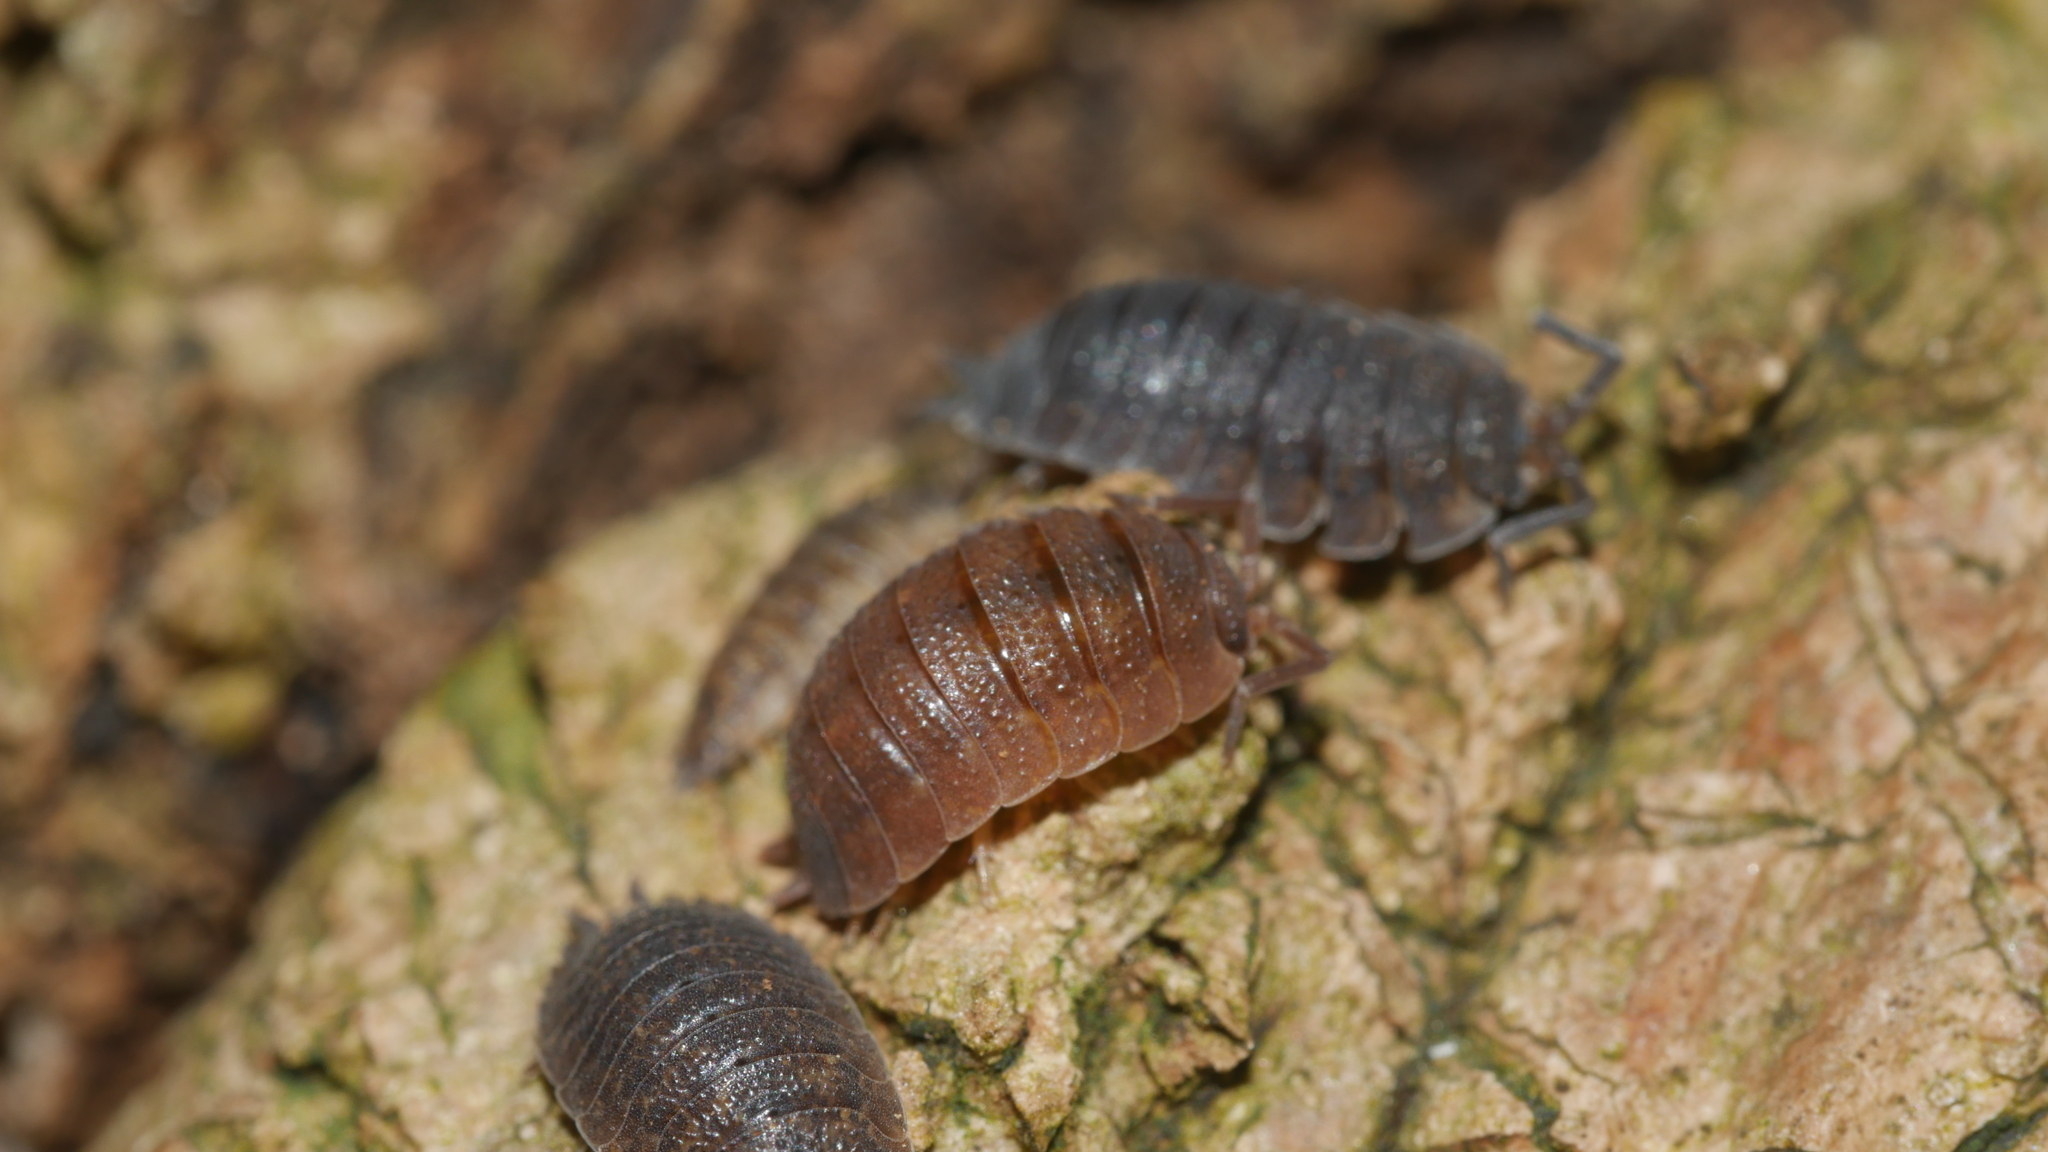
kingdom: Animalia
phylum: Arthropoda
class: Malacostraca
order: Isopoda
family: Porcellionidae
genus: Porcellio
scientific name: Porcellio scaber
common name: Common rough woodlouse
